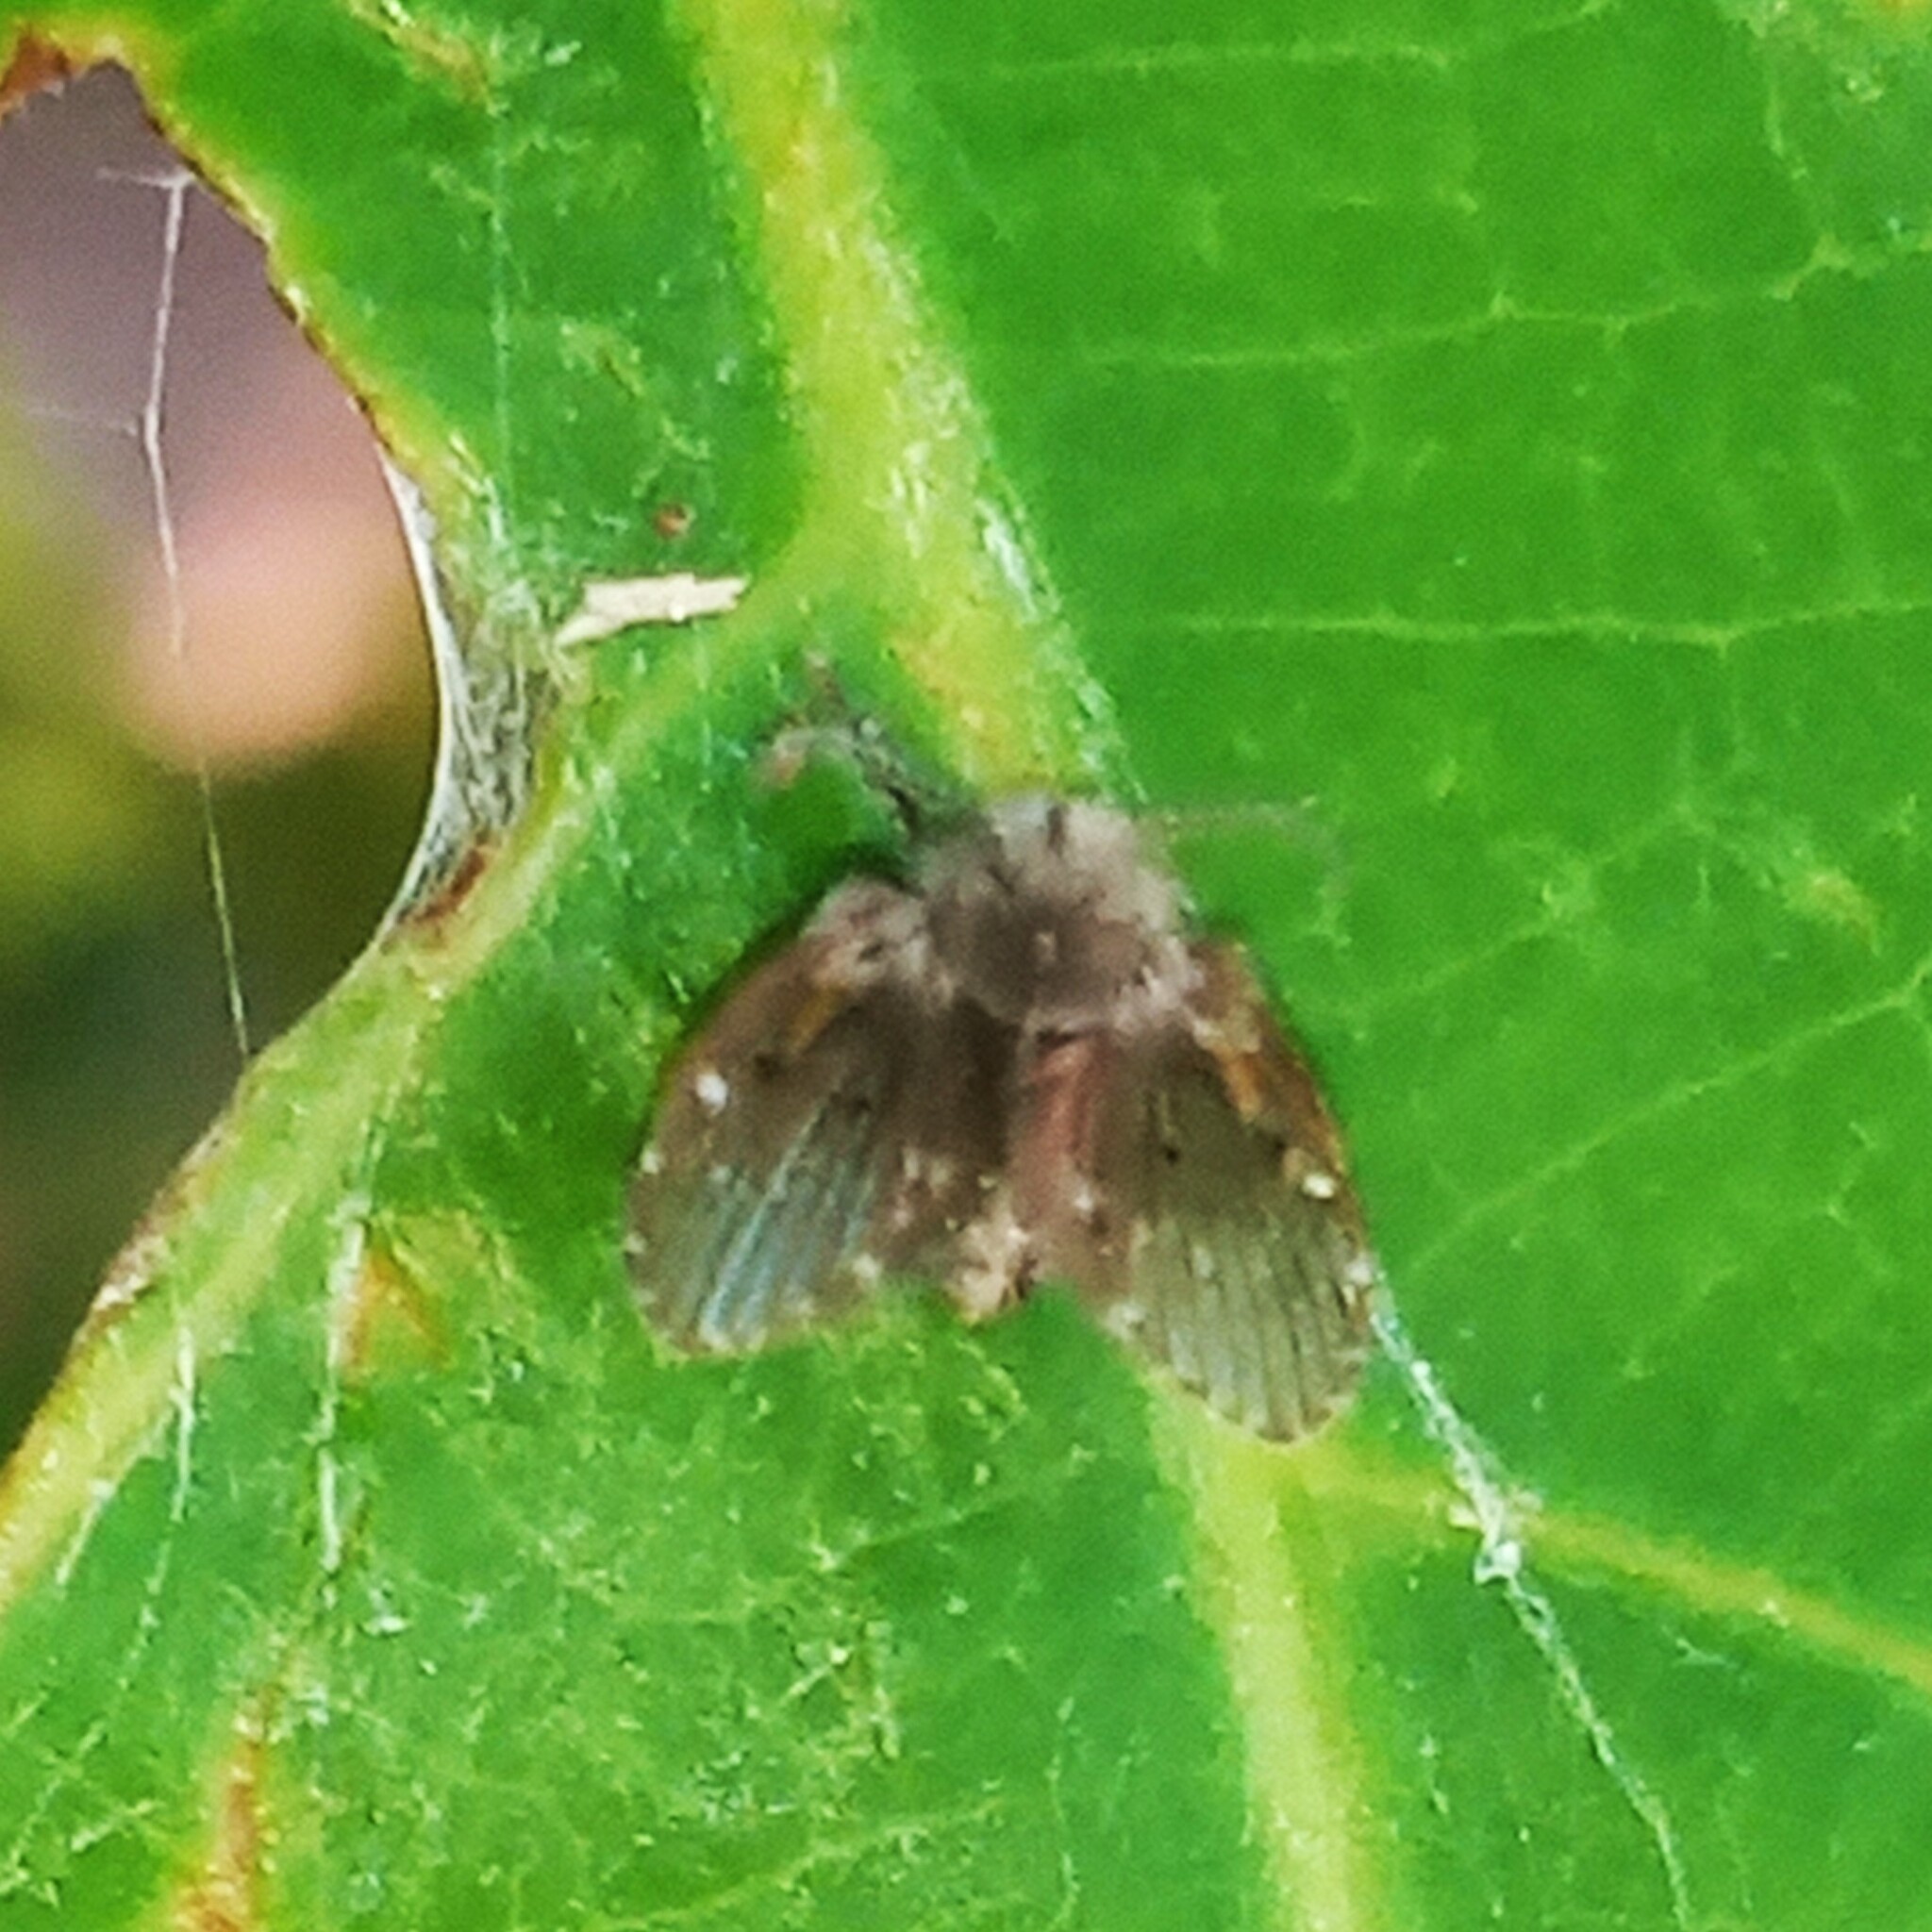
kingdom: Animalia
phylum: Arthropoda
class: Insecta
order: Diptera
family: Psychodidae
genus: Clogmia
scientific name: Clogmia albipunctatus
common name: White-spotted moth fly
